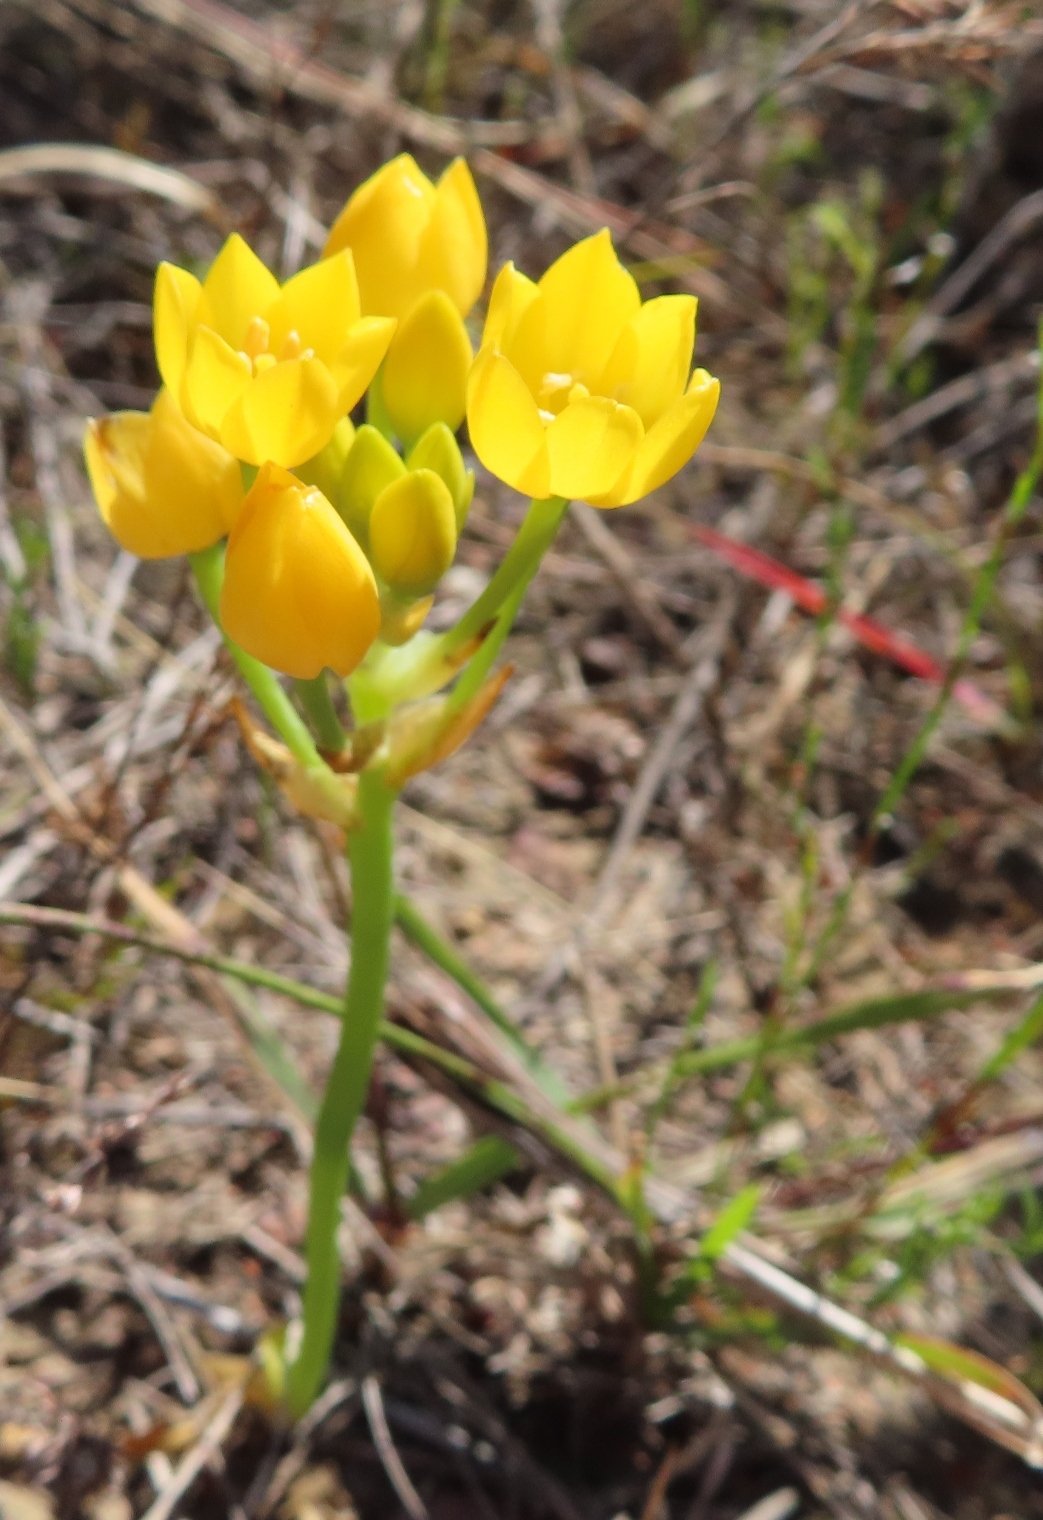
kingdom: Plantae
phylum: Tracheophyta
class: Liliopsida
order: Asparagales
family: Asparagaceae
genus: Ornithogalum
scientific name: Ornithogalum dubium
